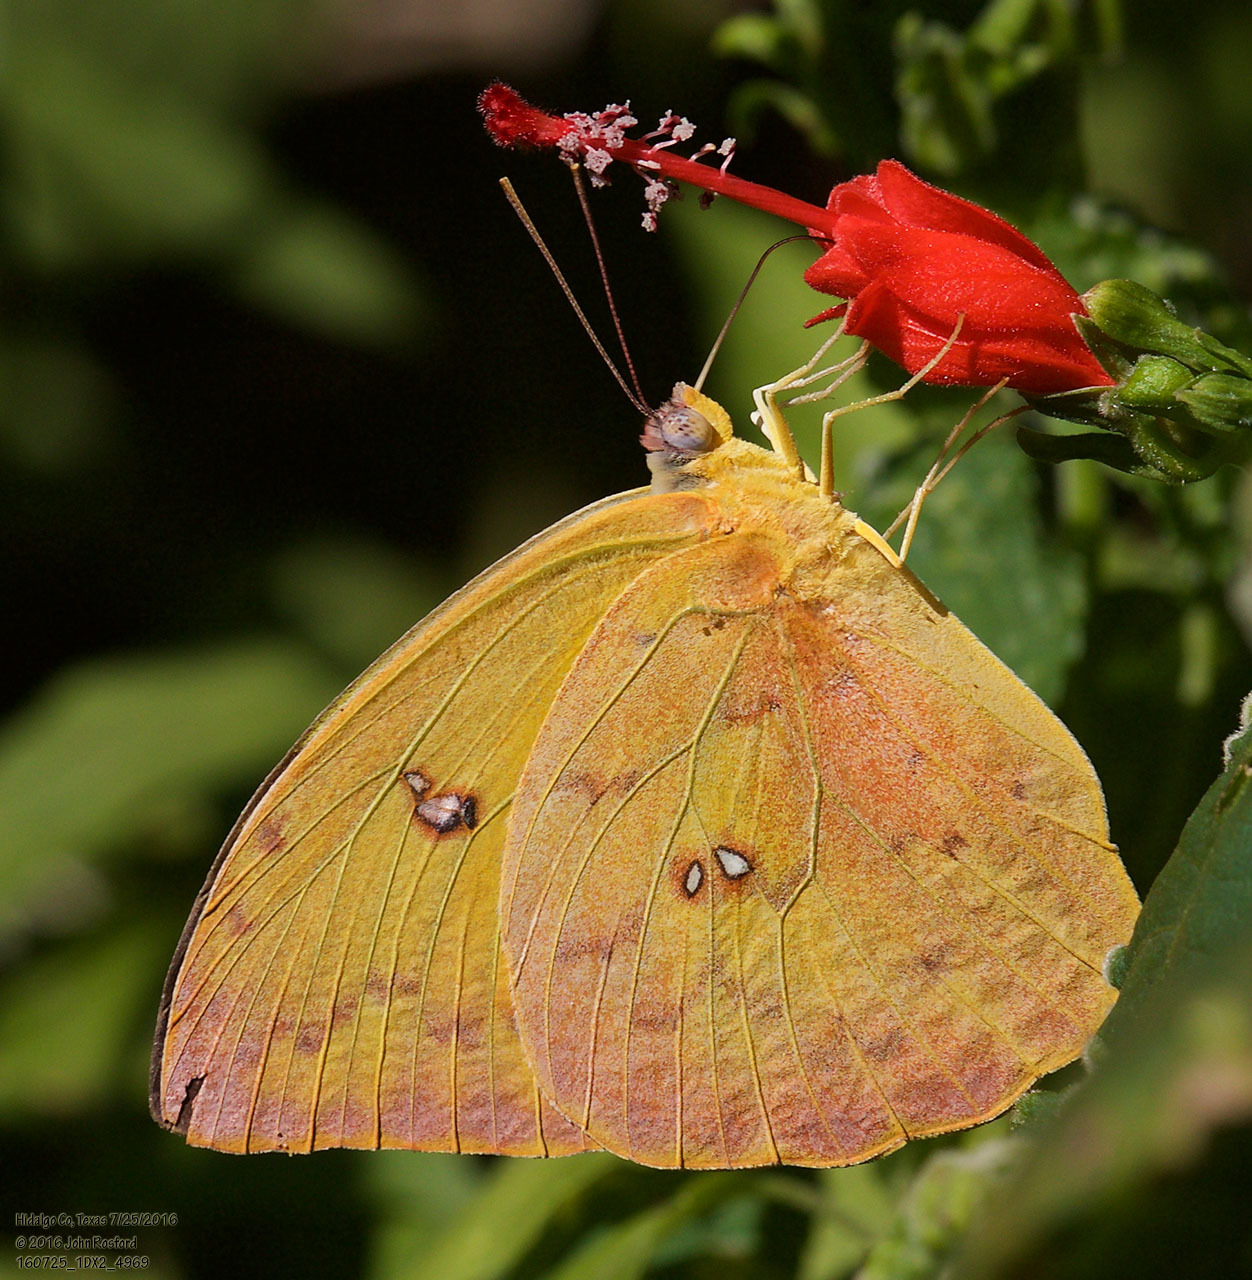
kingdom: Animalia
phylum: Arthropoda
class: Insecta
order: Lepidoptera
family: Pieridae
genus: Phoebis
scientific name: Phoebis philea
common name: Orange-barred giant sulphur
